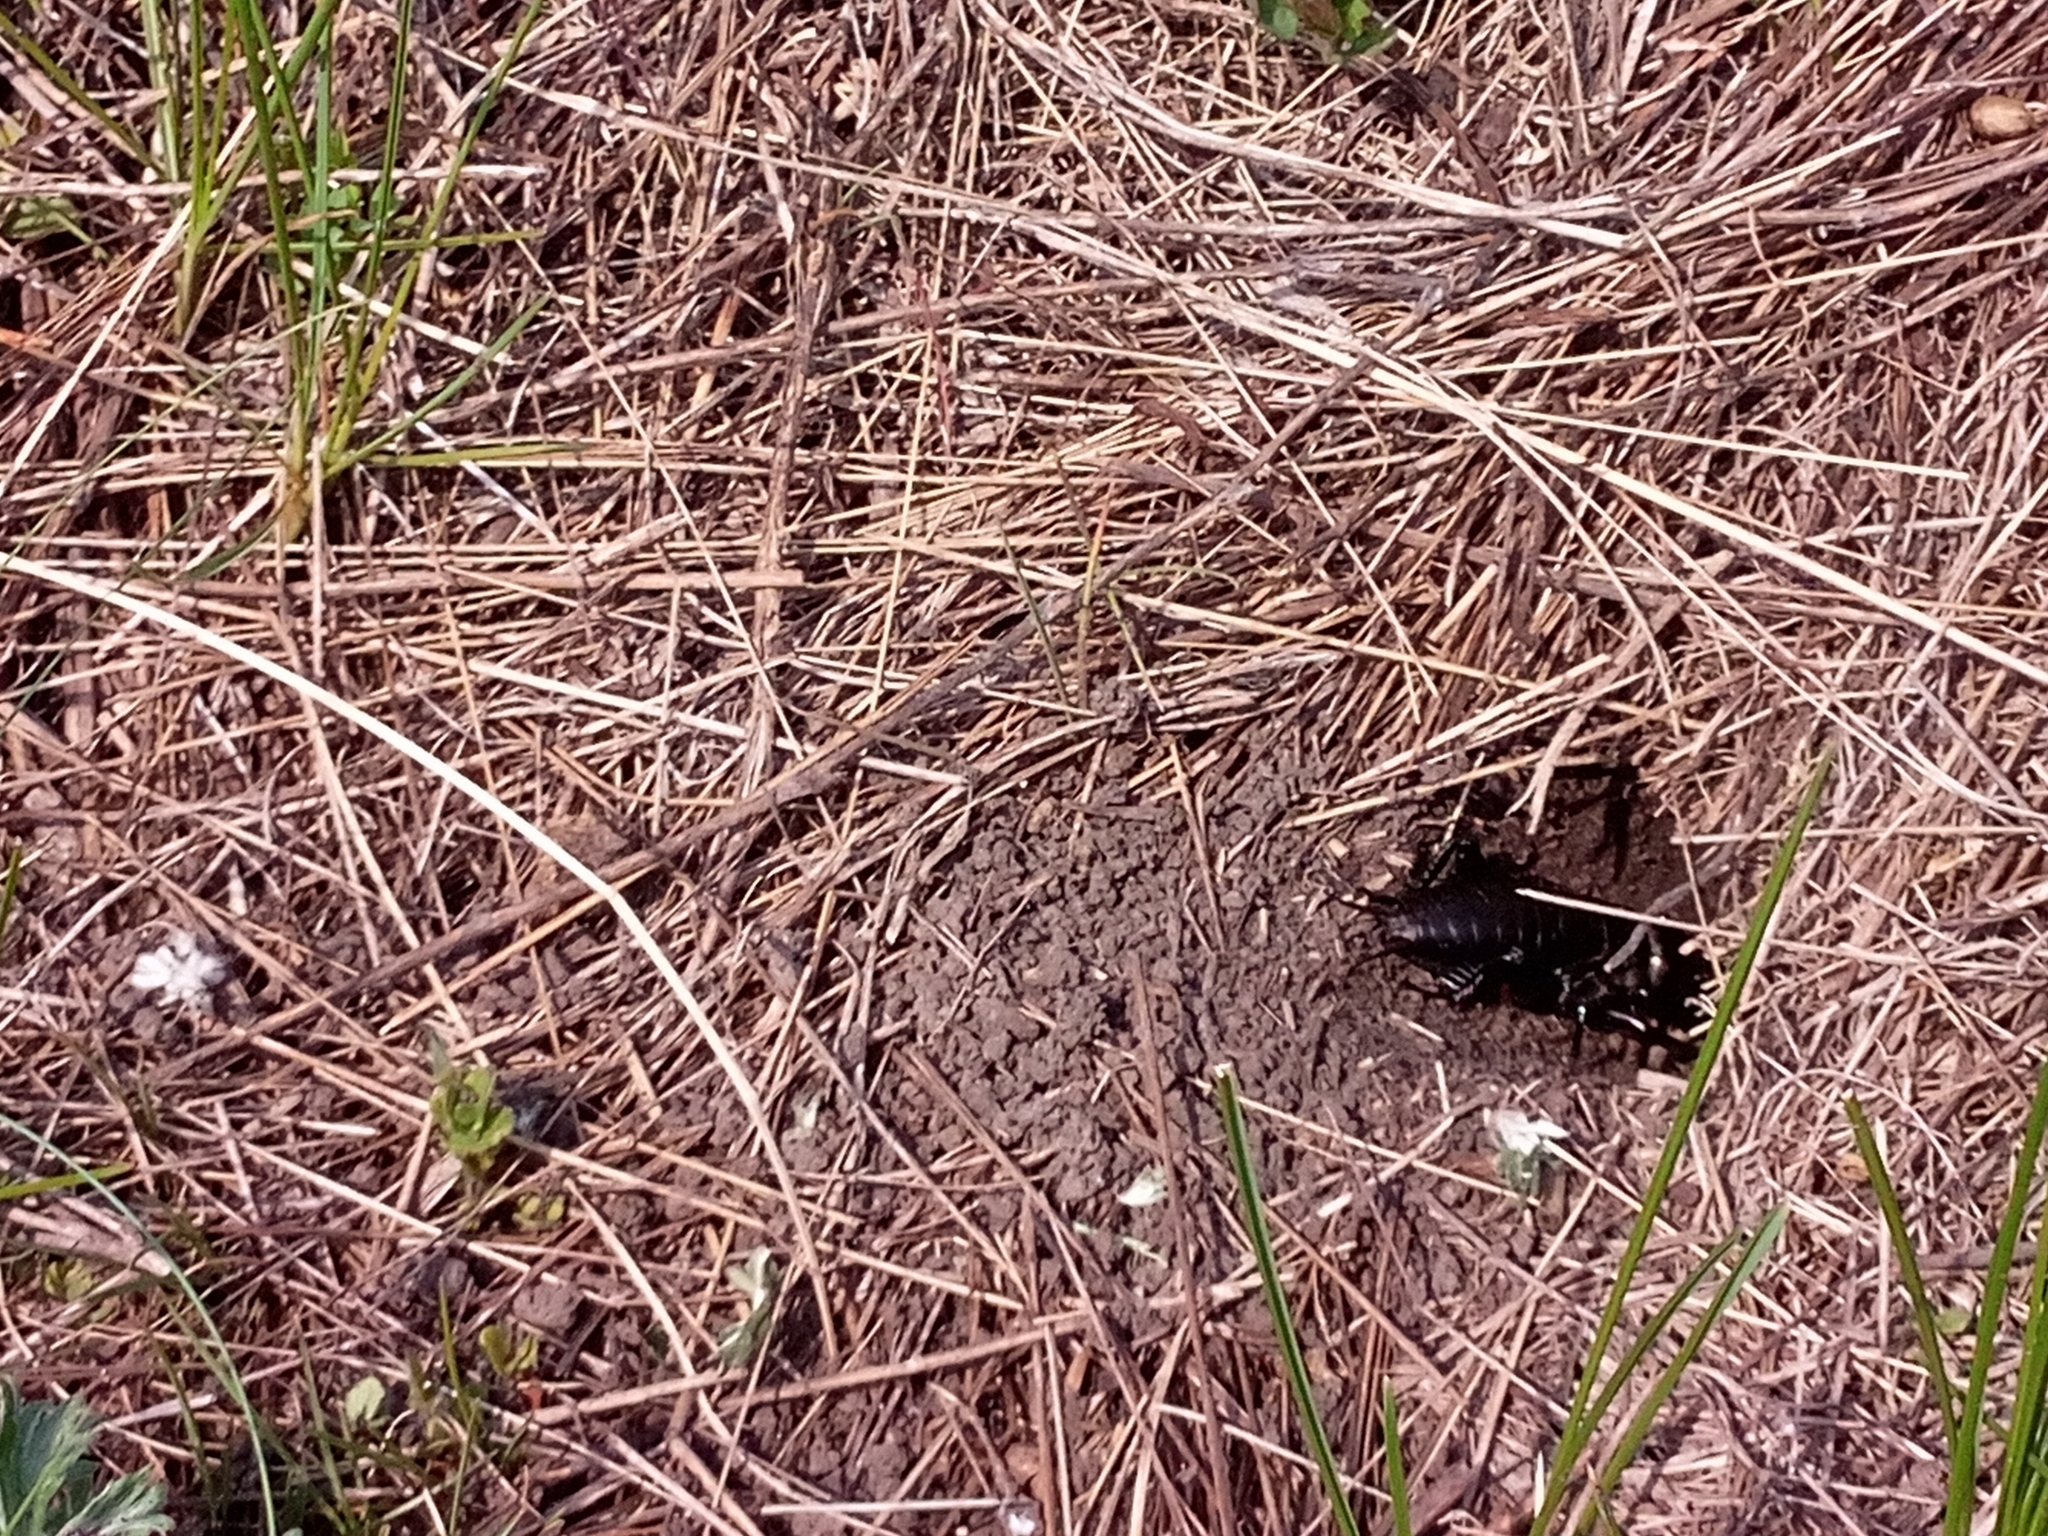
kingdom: Animalia
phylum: Arthropoda
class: Insecta
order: Orthoptera
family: Gryllidae
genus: Gryllus
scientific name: Gryllus campestris
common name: Field cricket
